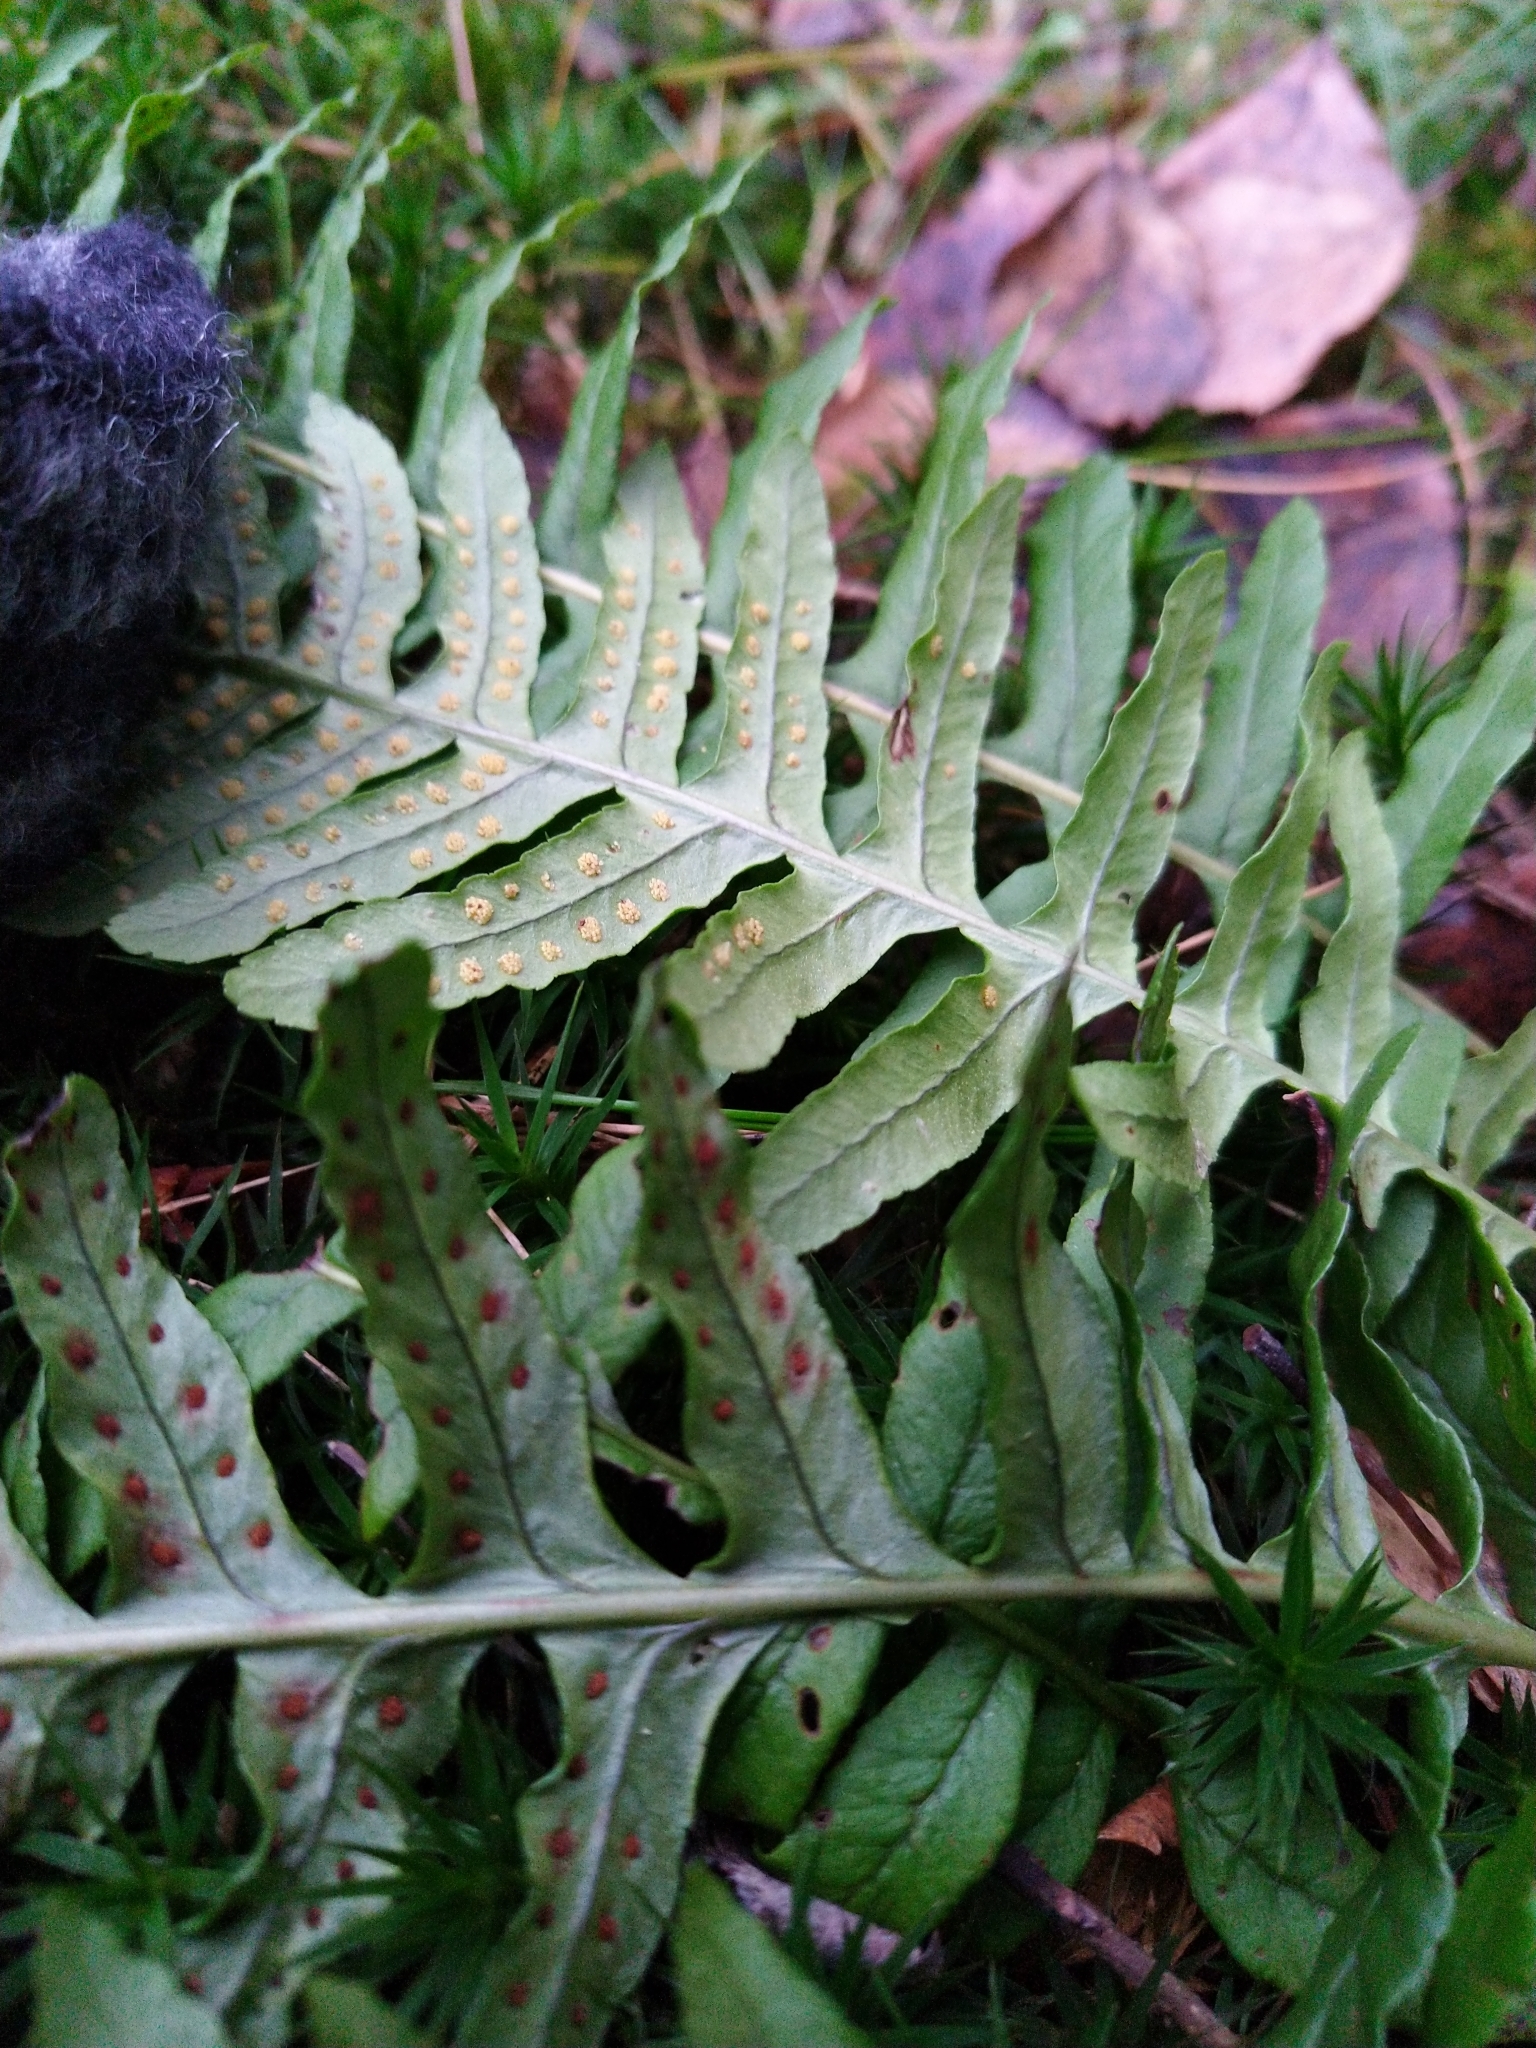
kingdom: Plantae
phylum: Tracheophyta
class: Polypodiopsida
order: Polypodiales
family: Polypodiaceae
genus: Polypodium
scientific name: Polypodium vulgare
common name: Common polypody
